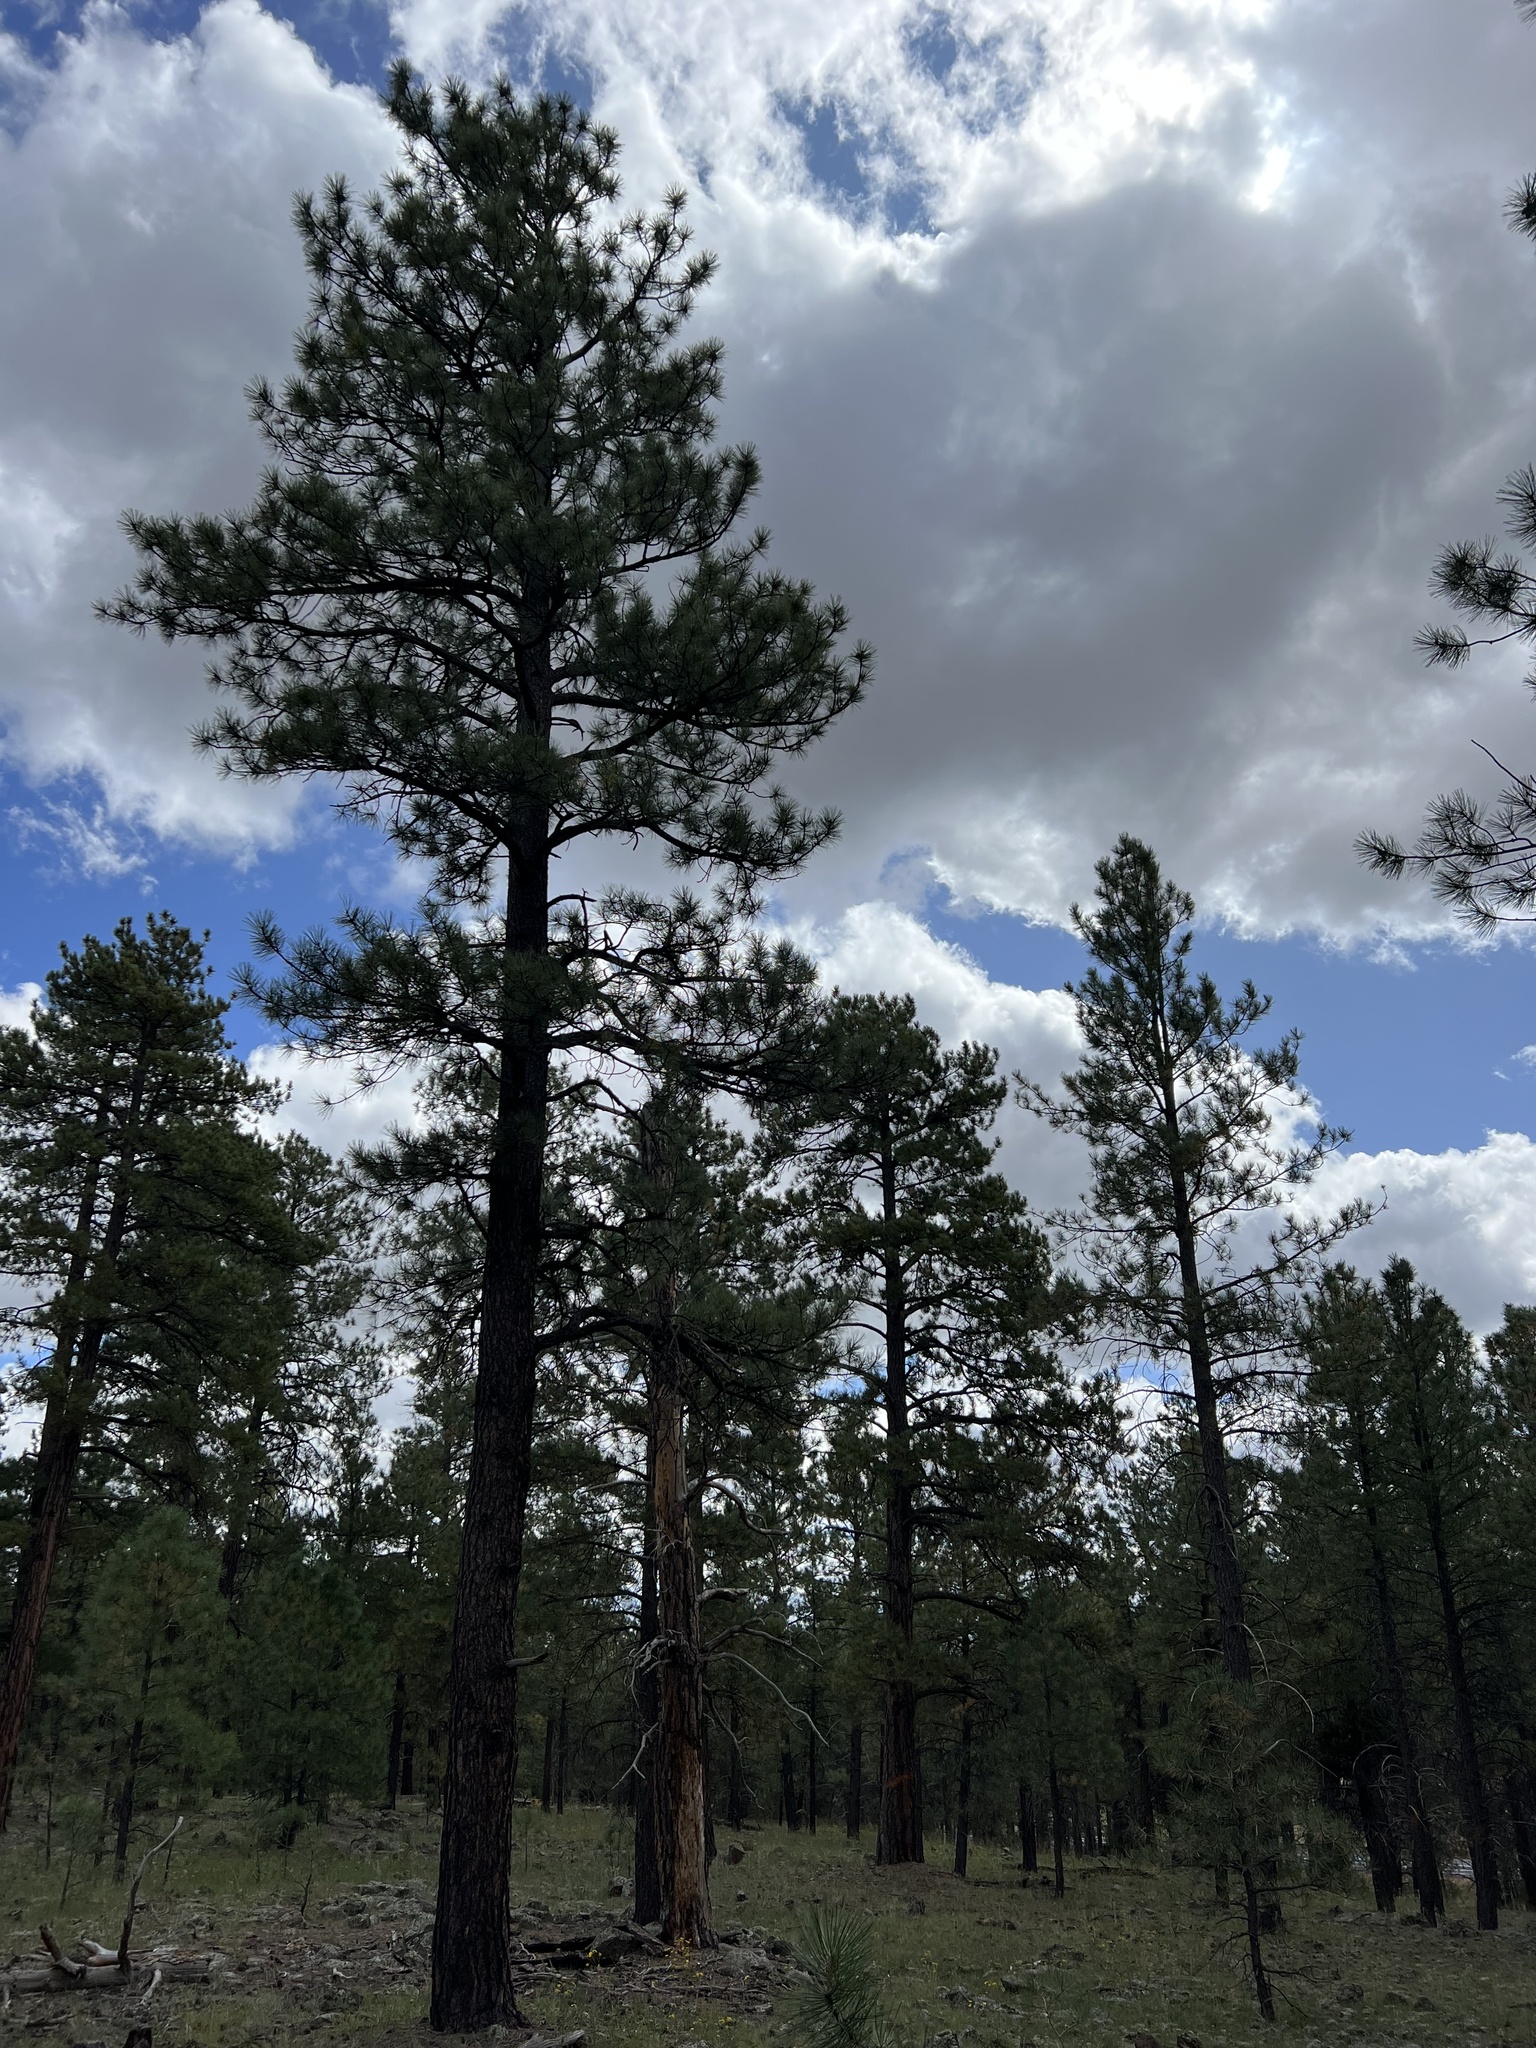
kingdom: Plantae
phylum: Tracheophyta
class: Pinopsida
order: Pinales
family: Pinaceae
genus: Pinus
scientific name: Pinus ponderosa
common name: Western yellow-pine
